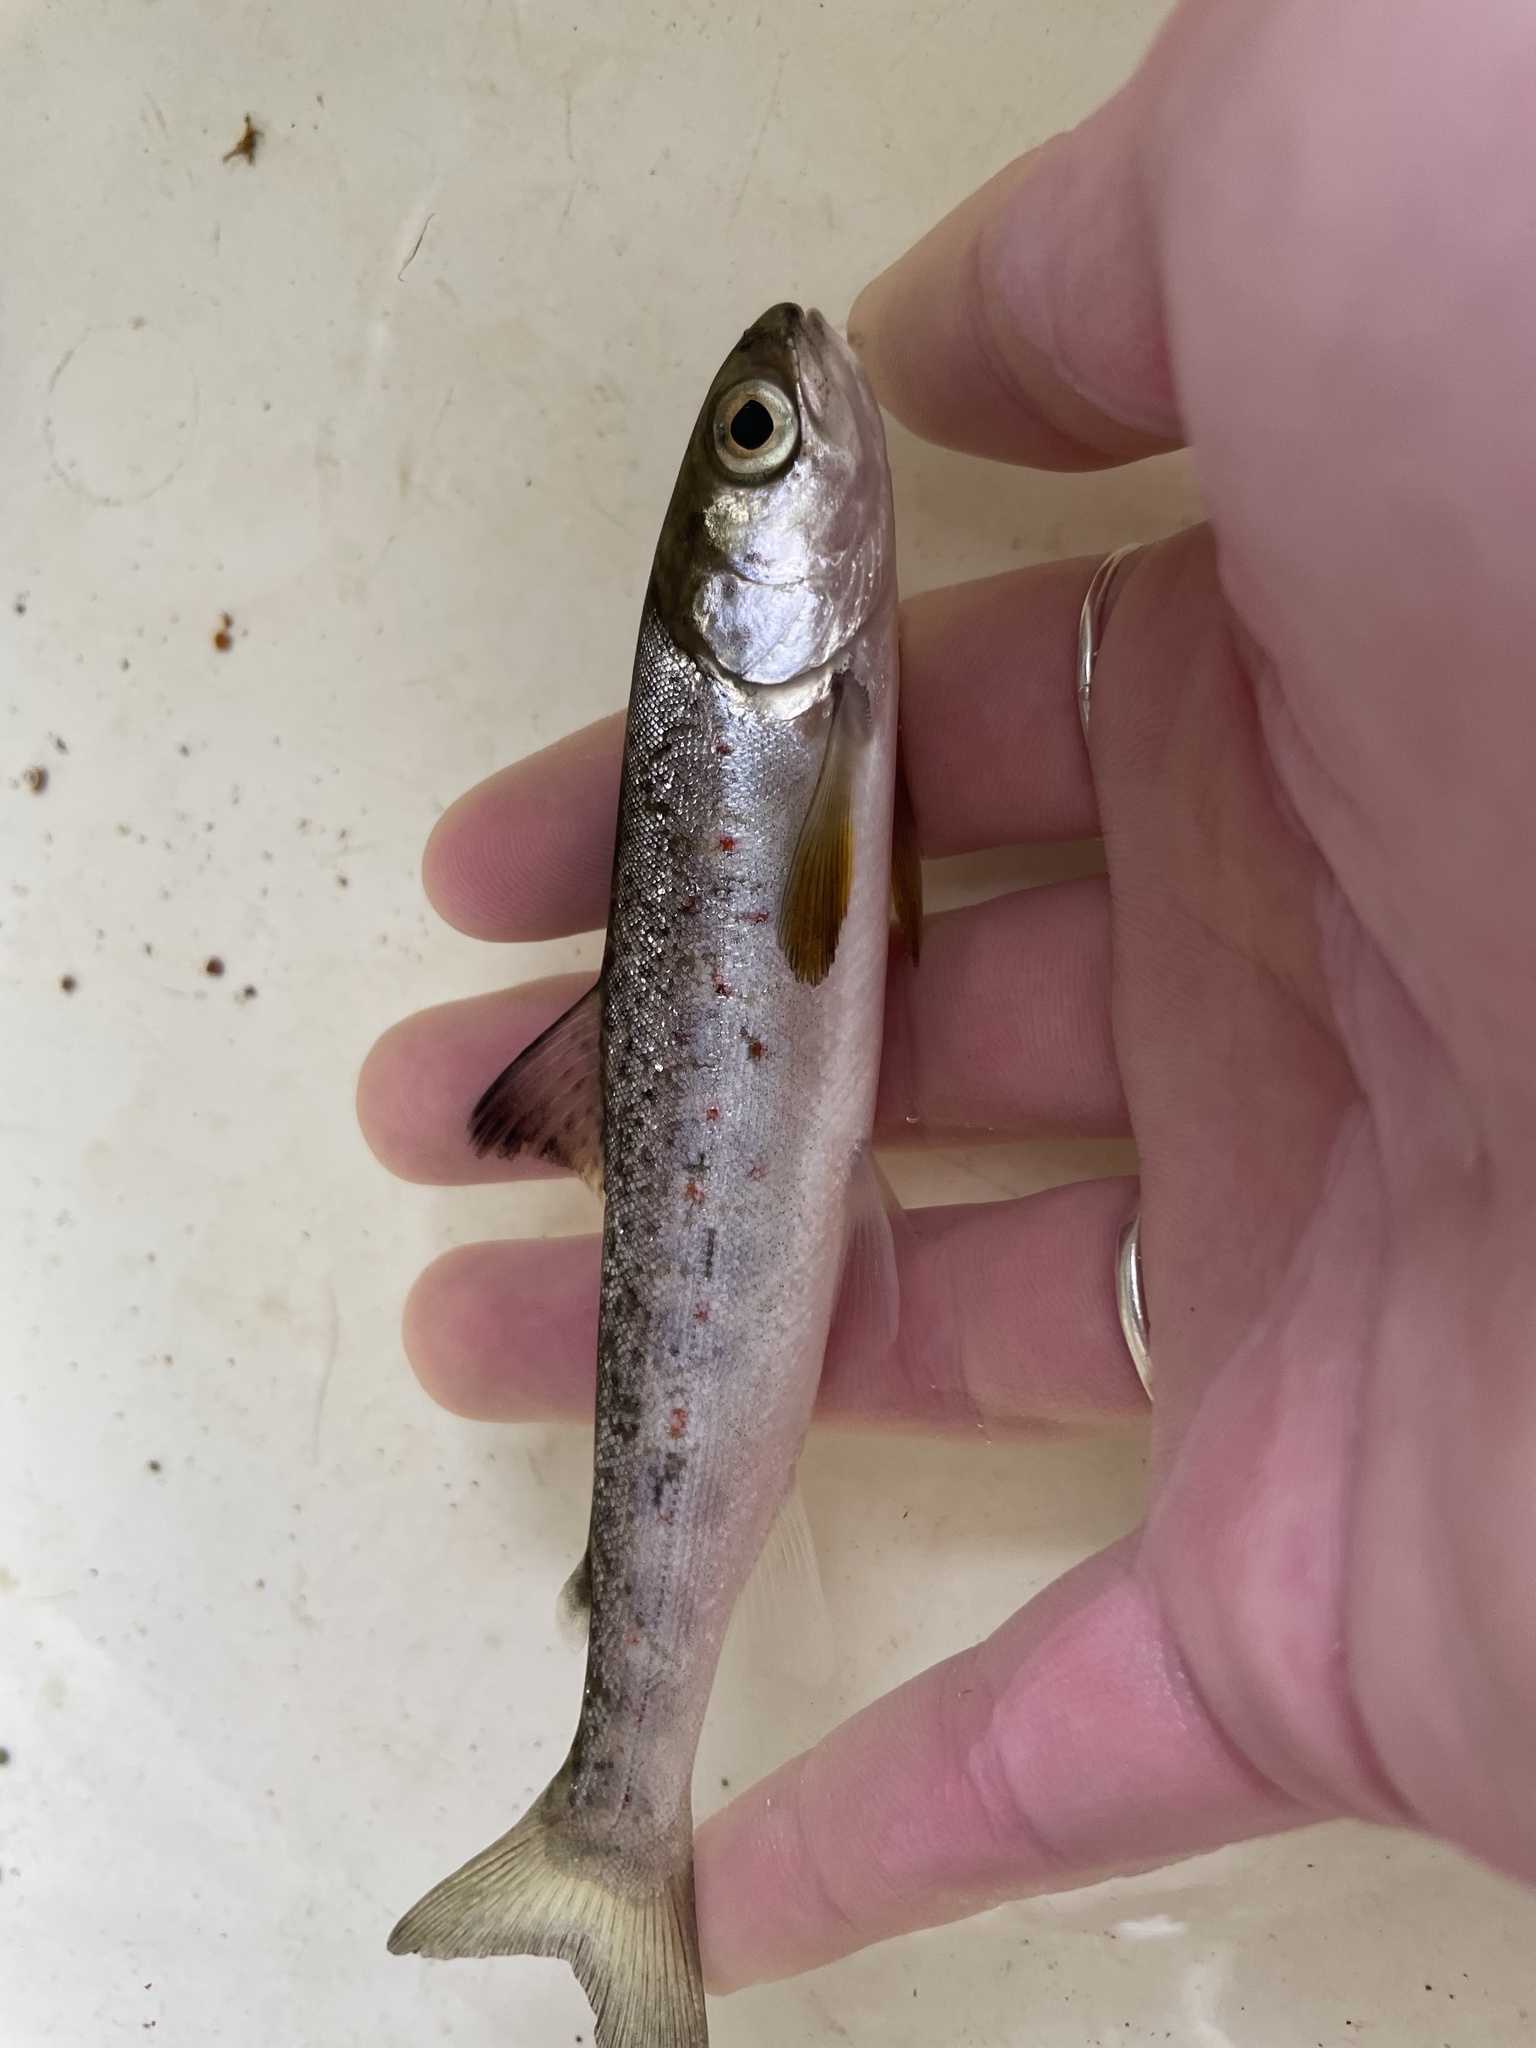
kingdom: Animalia
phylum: Chordata
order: Salmoniformes
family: Salmonidae
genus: Salmo
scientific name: Salmo salar
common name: Atlantic salmon
